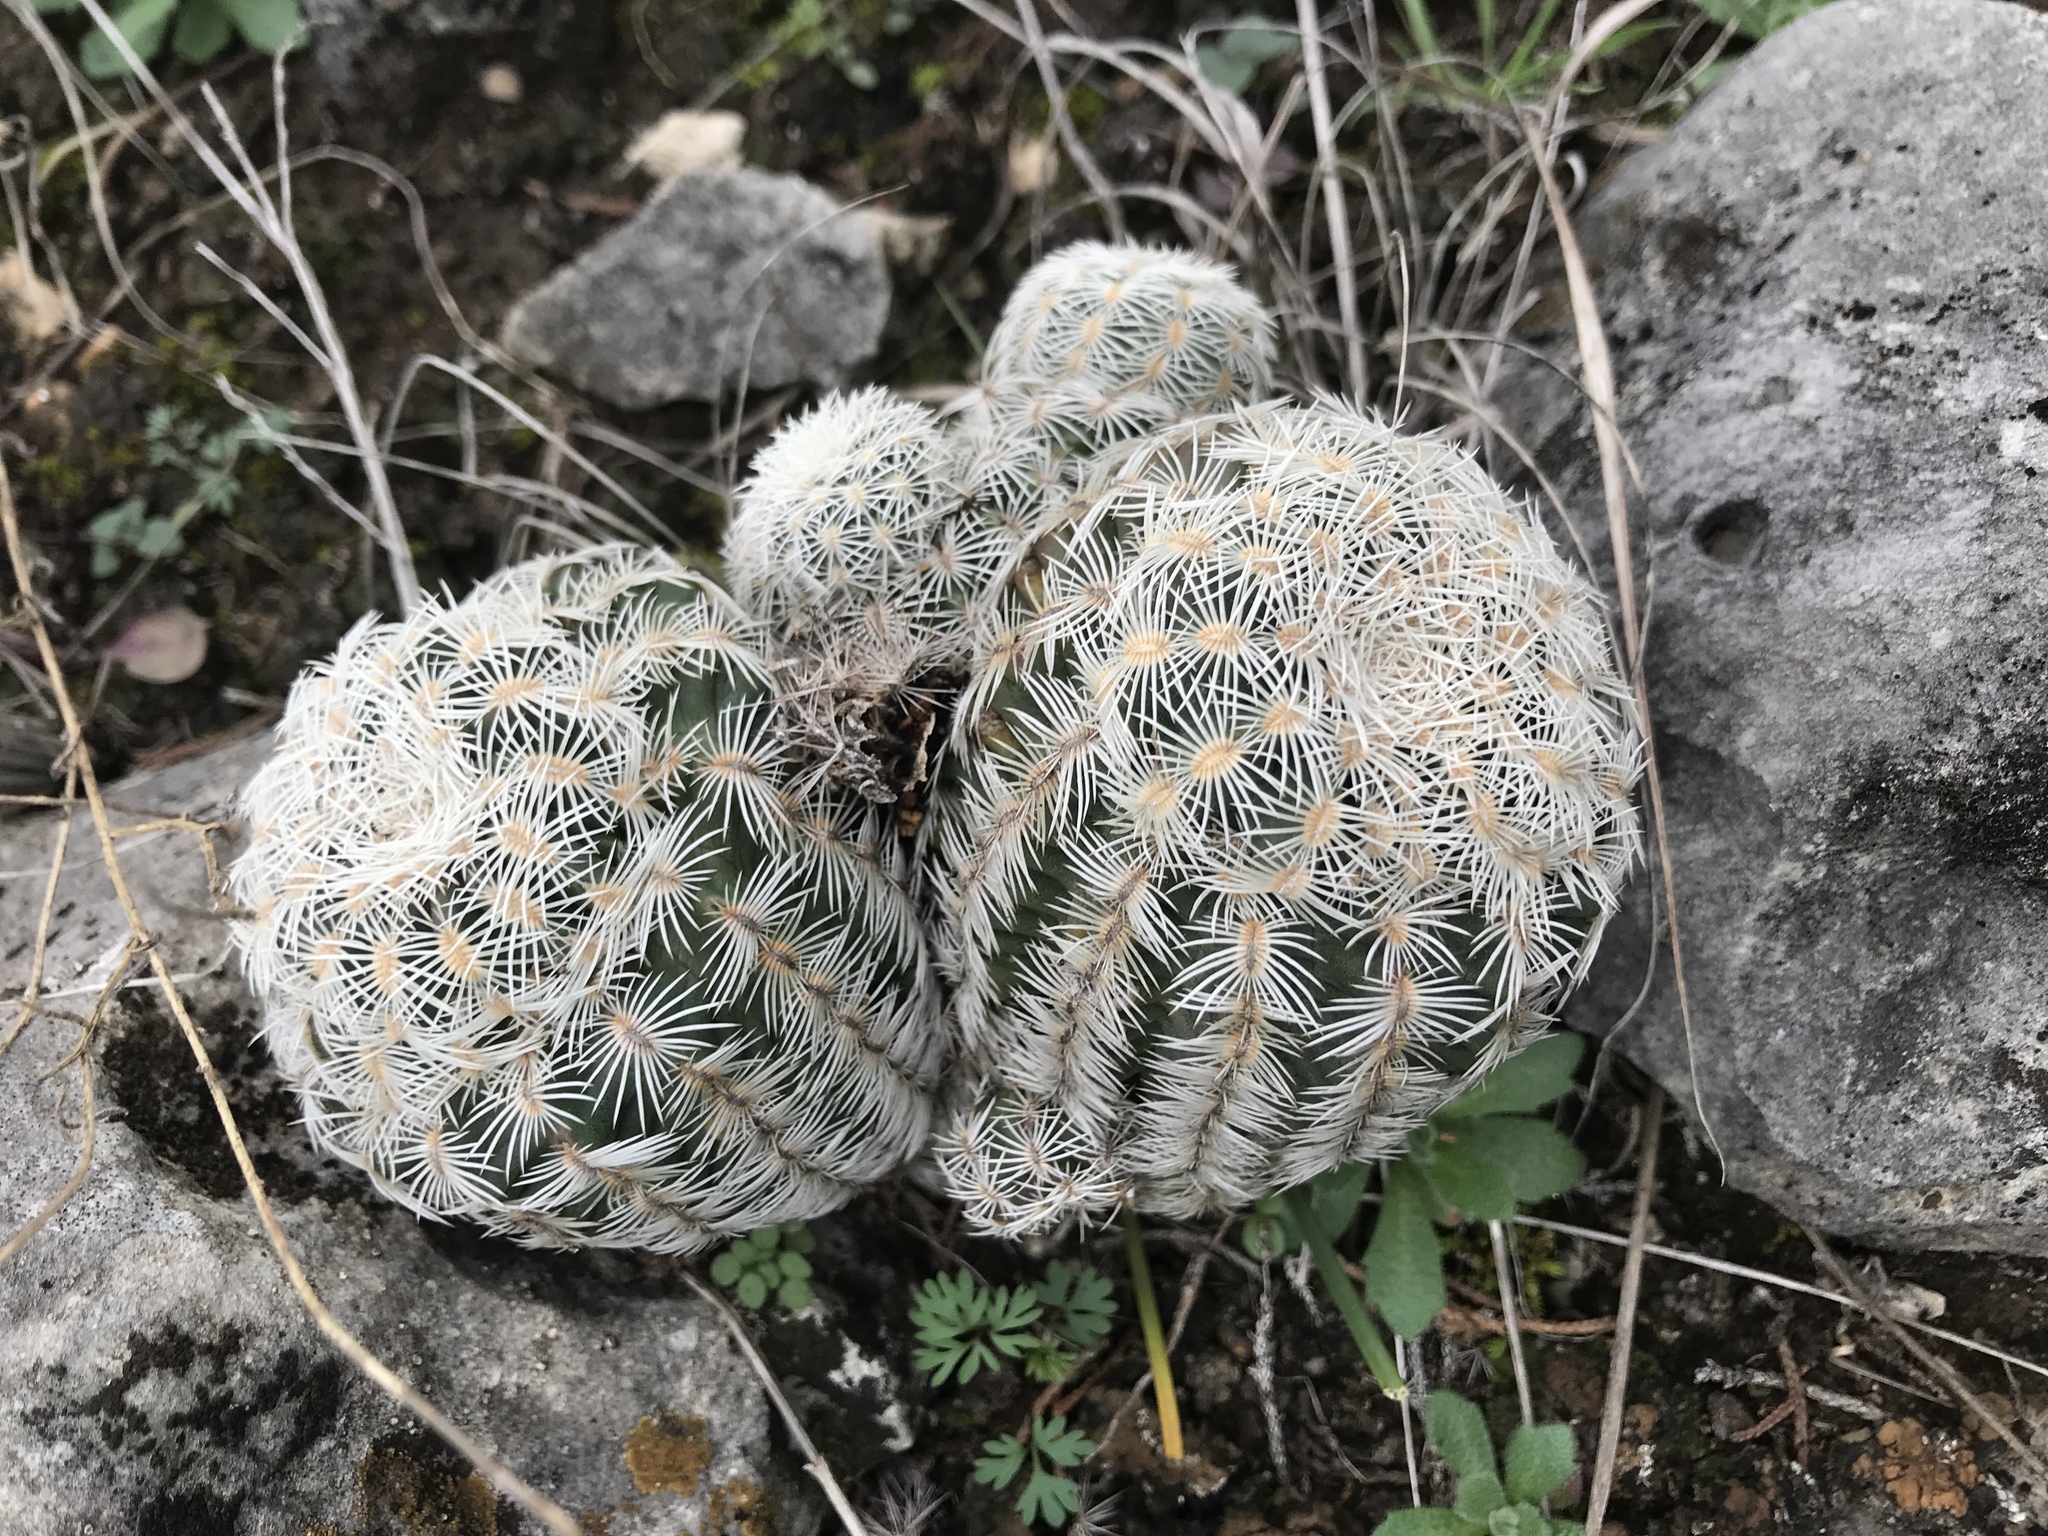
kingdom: Plantae
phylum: Tracheophyta
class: Magnoliopsida
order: Caryophyllales
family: Cactaceae
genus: Echinocereus
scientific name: Echinocereus reichenbachii
